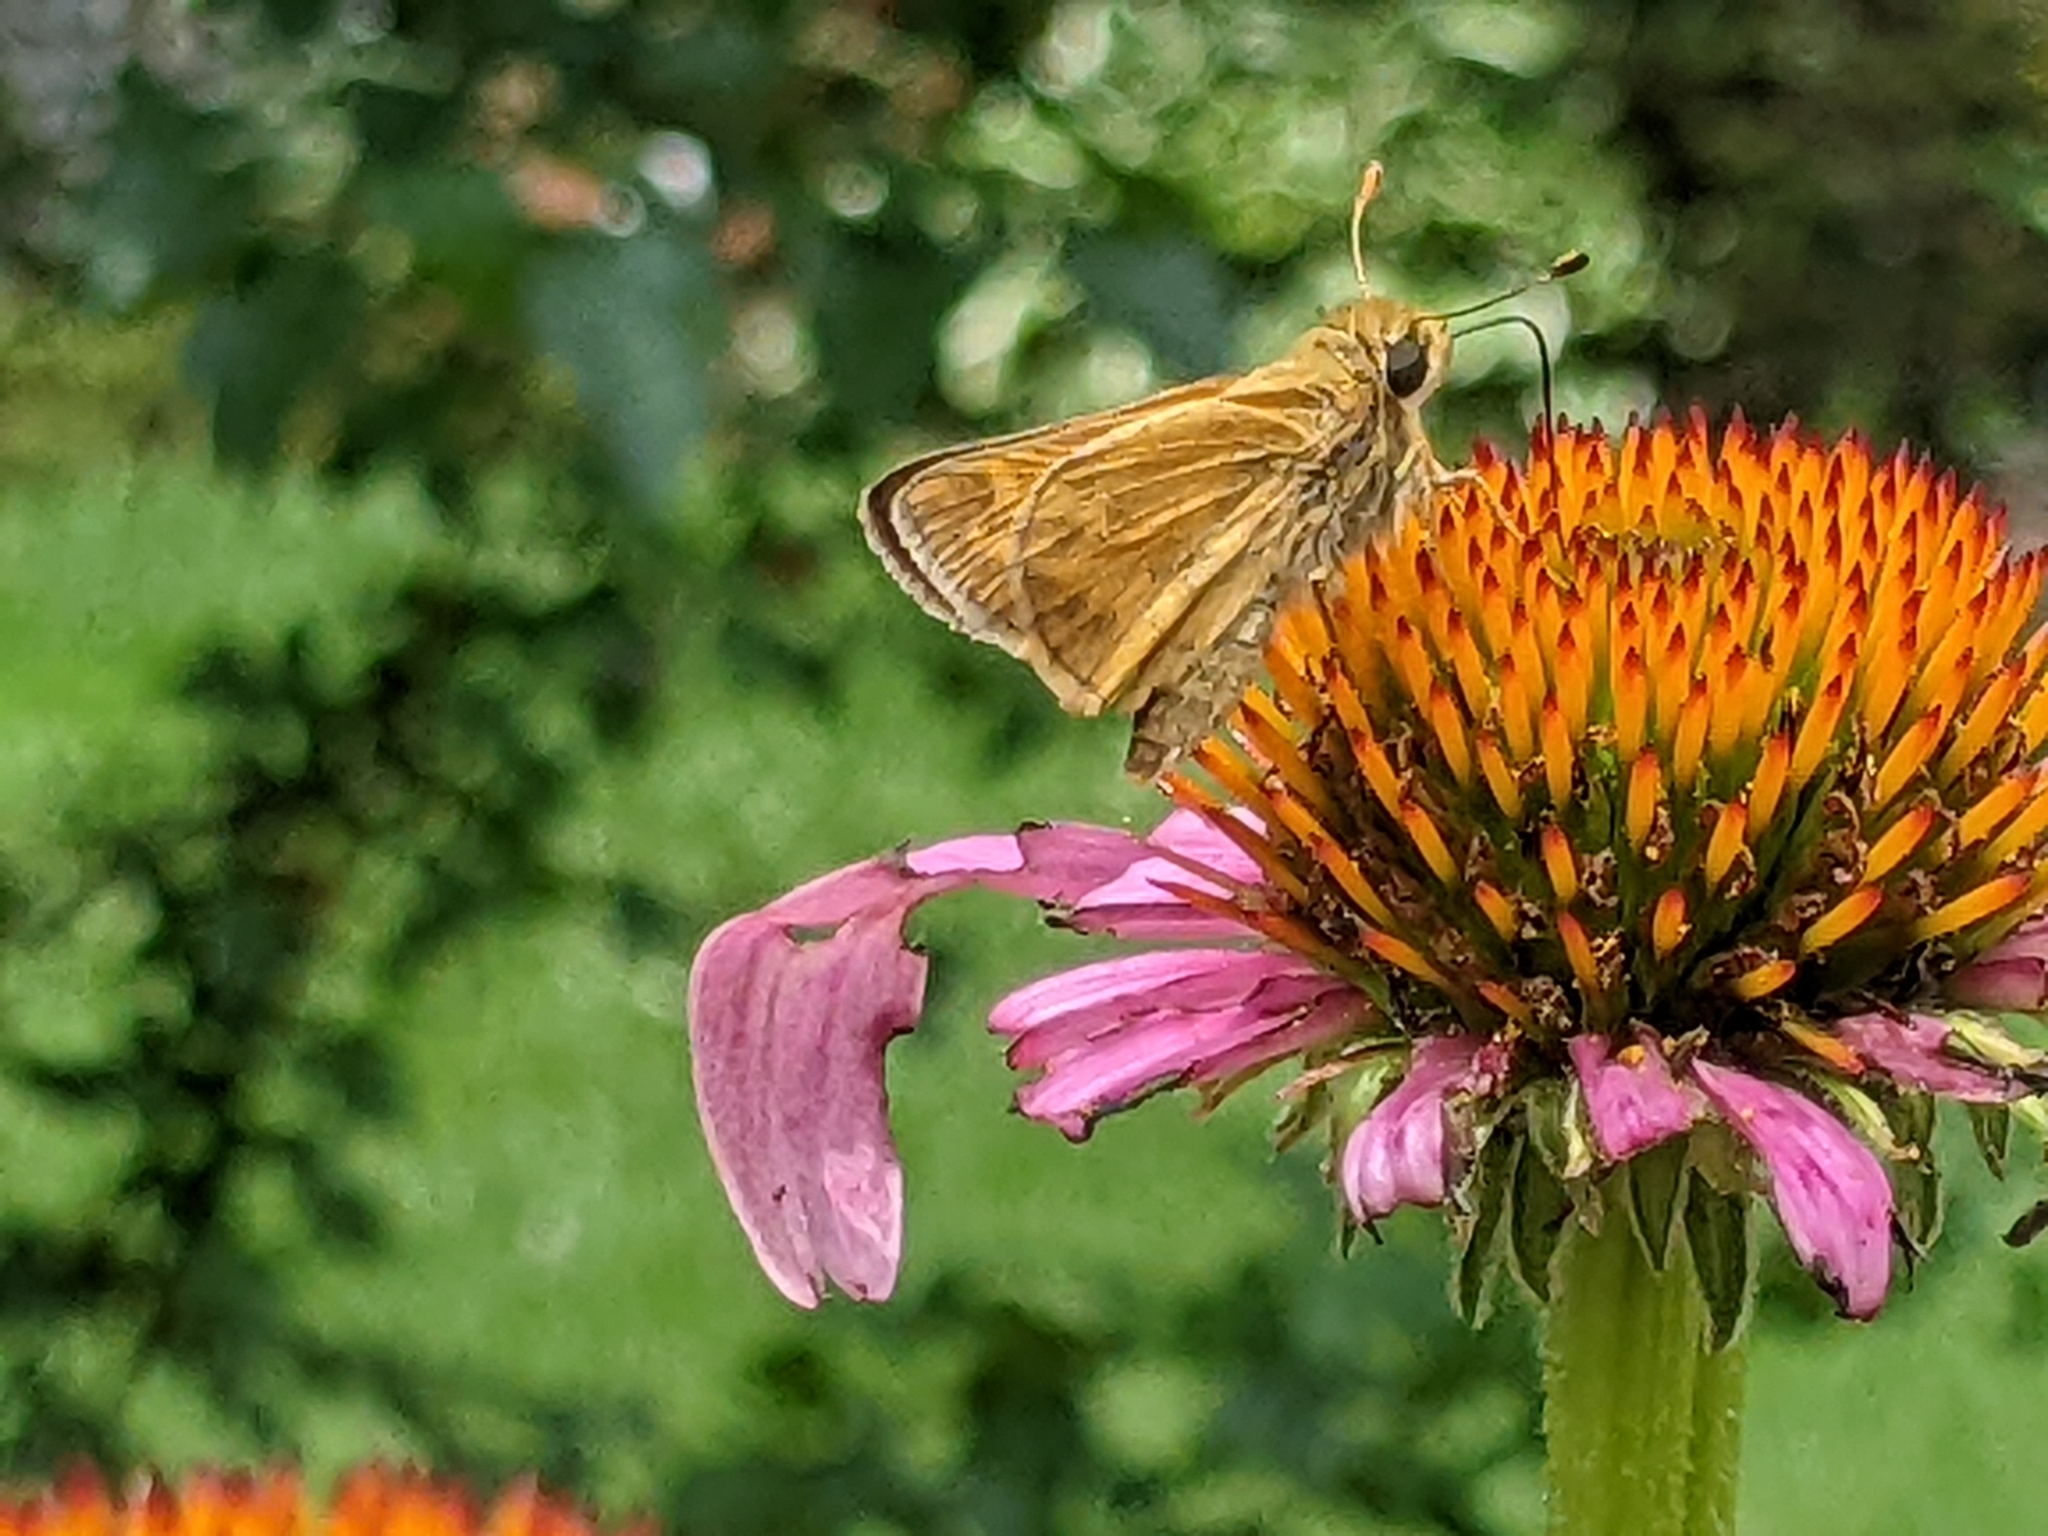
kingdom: Animalia
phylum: Arthropoda
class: Insecta
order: Lepidoptera
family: Hesperiidae
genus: Atalopedes
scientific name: Atalopedes
